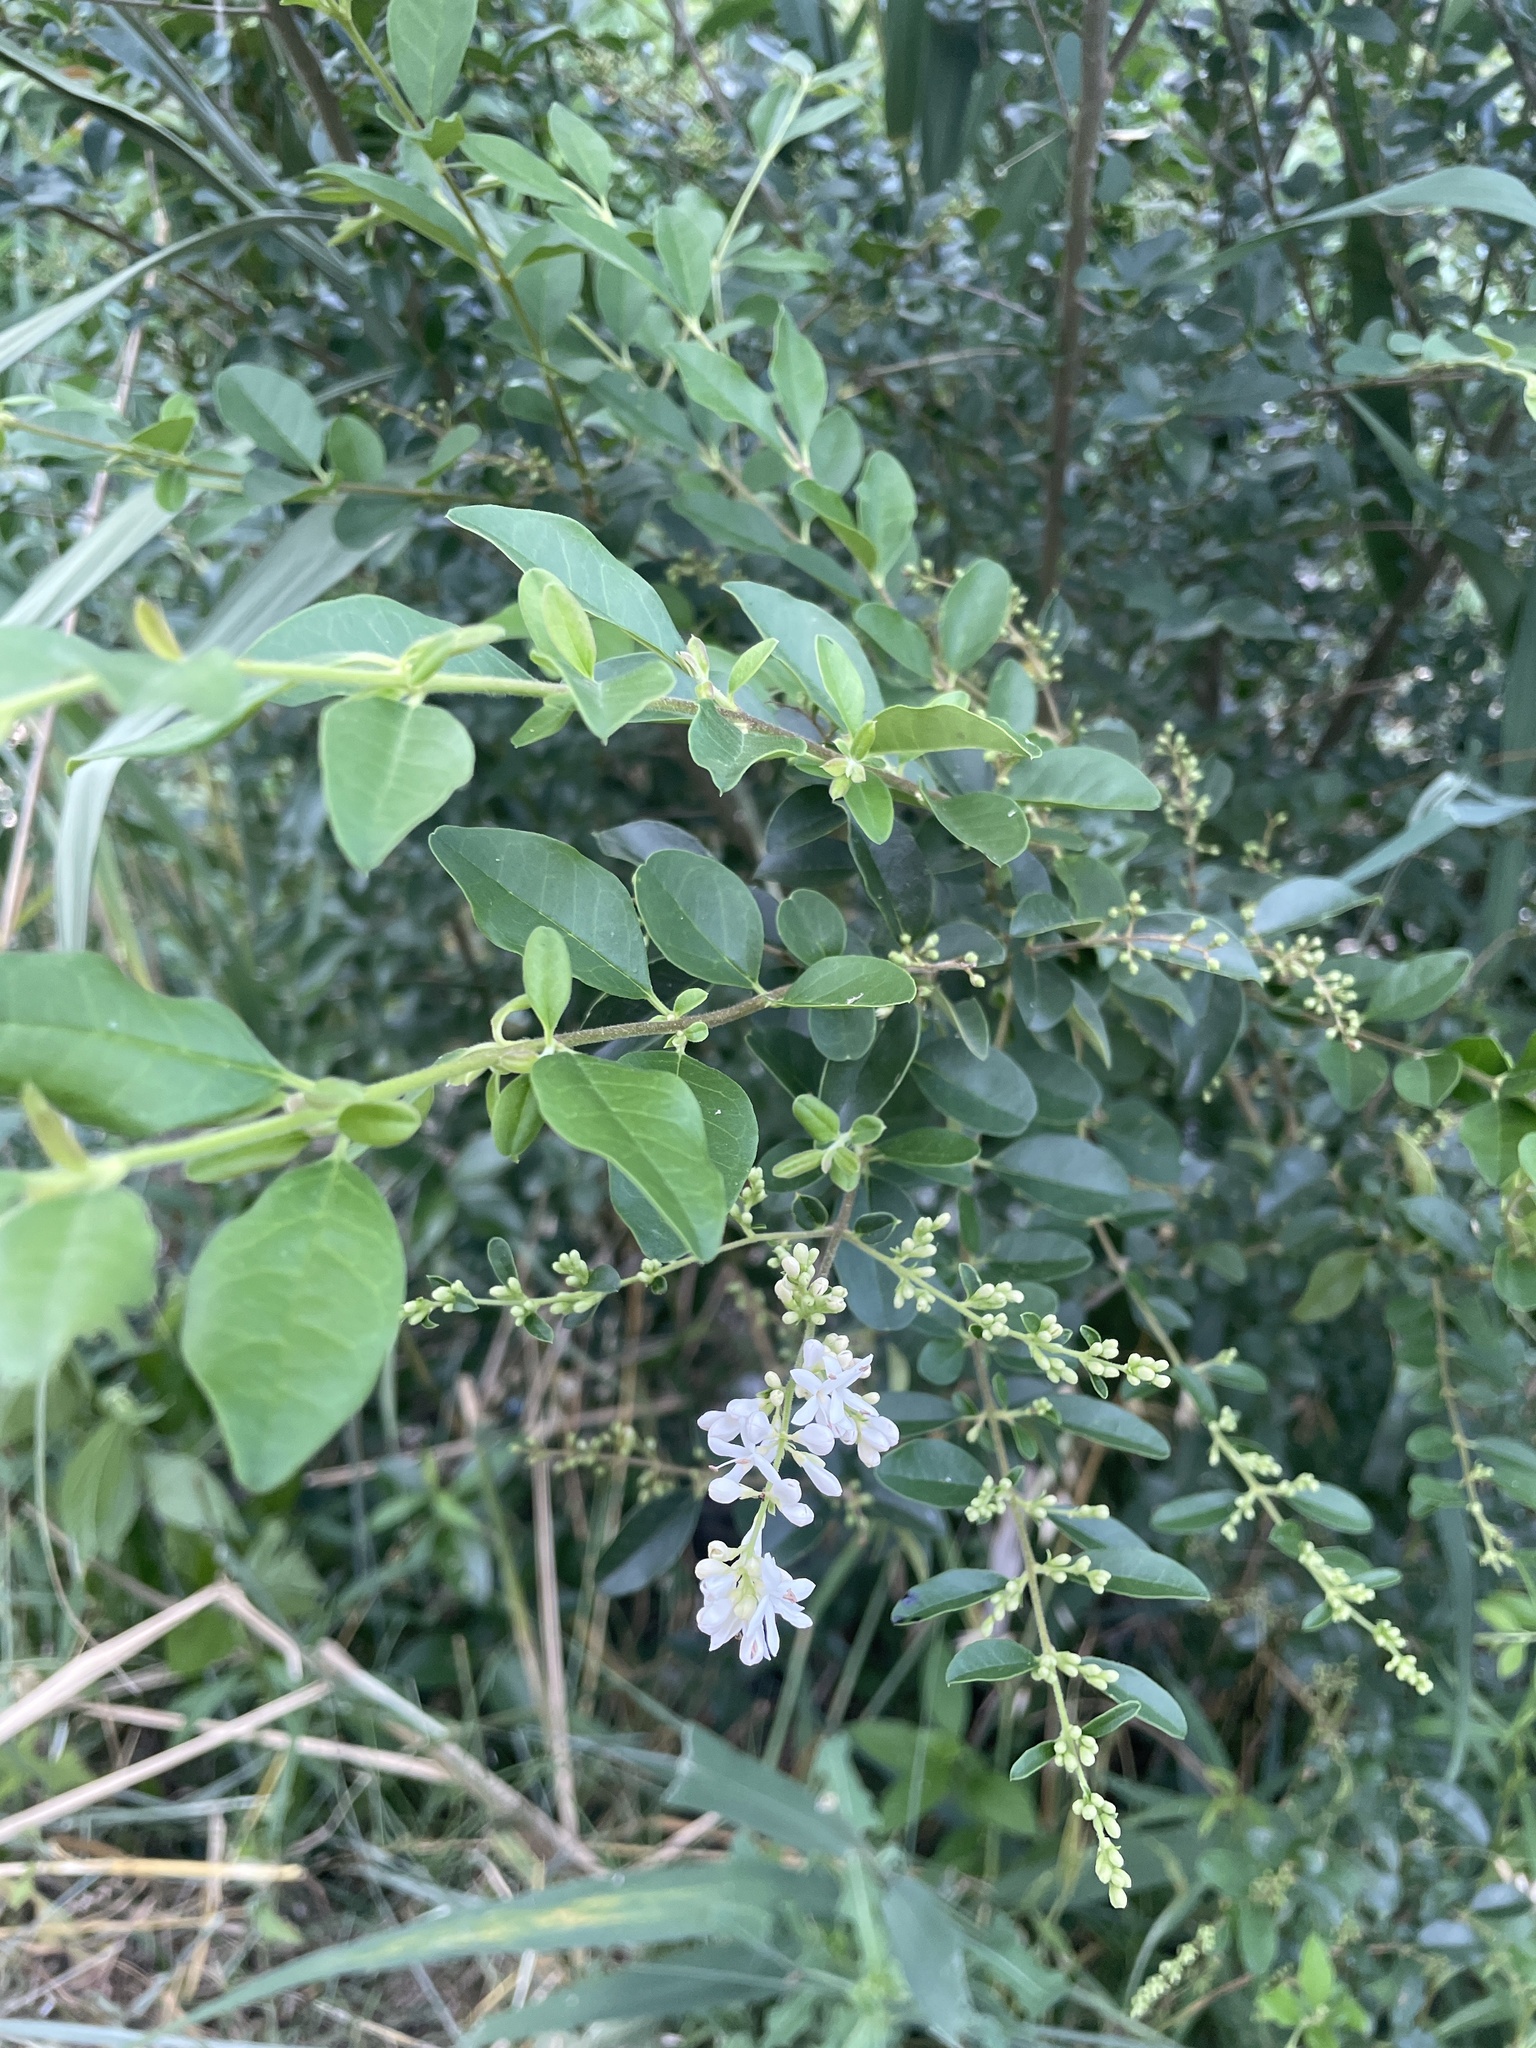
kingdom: Plantae
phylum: Tracheophyta
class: Magnoliopsida
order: Lamiales
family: Oleaceae
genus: Ligustrum
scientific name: Ligustrum sinense
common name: Chinese privet
